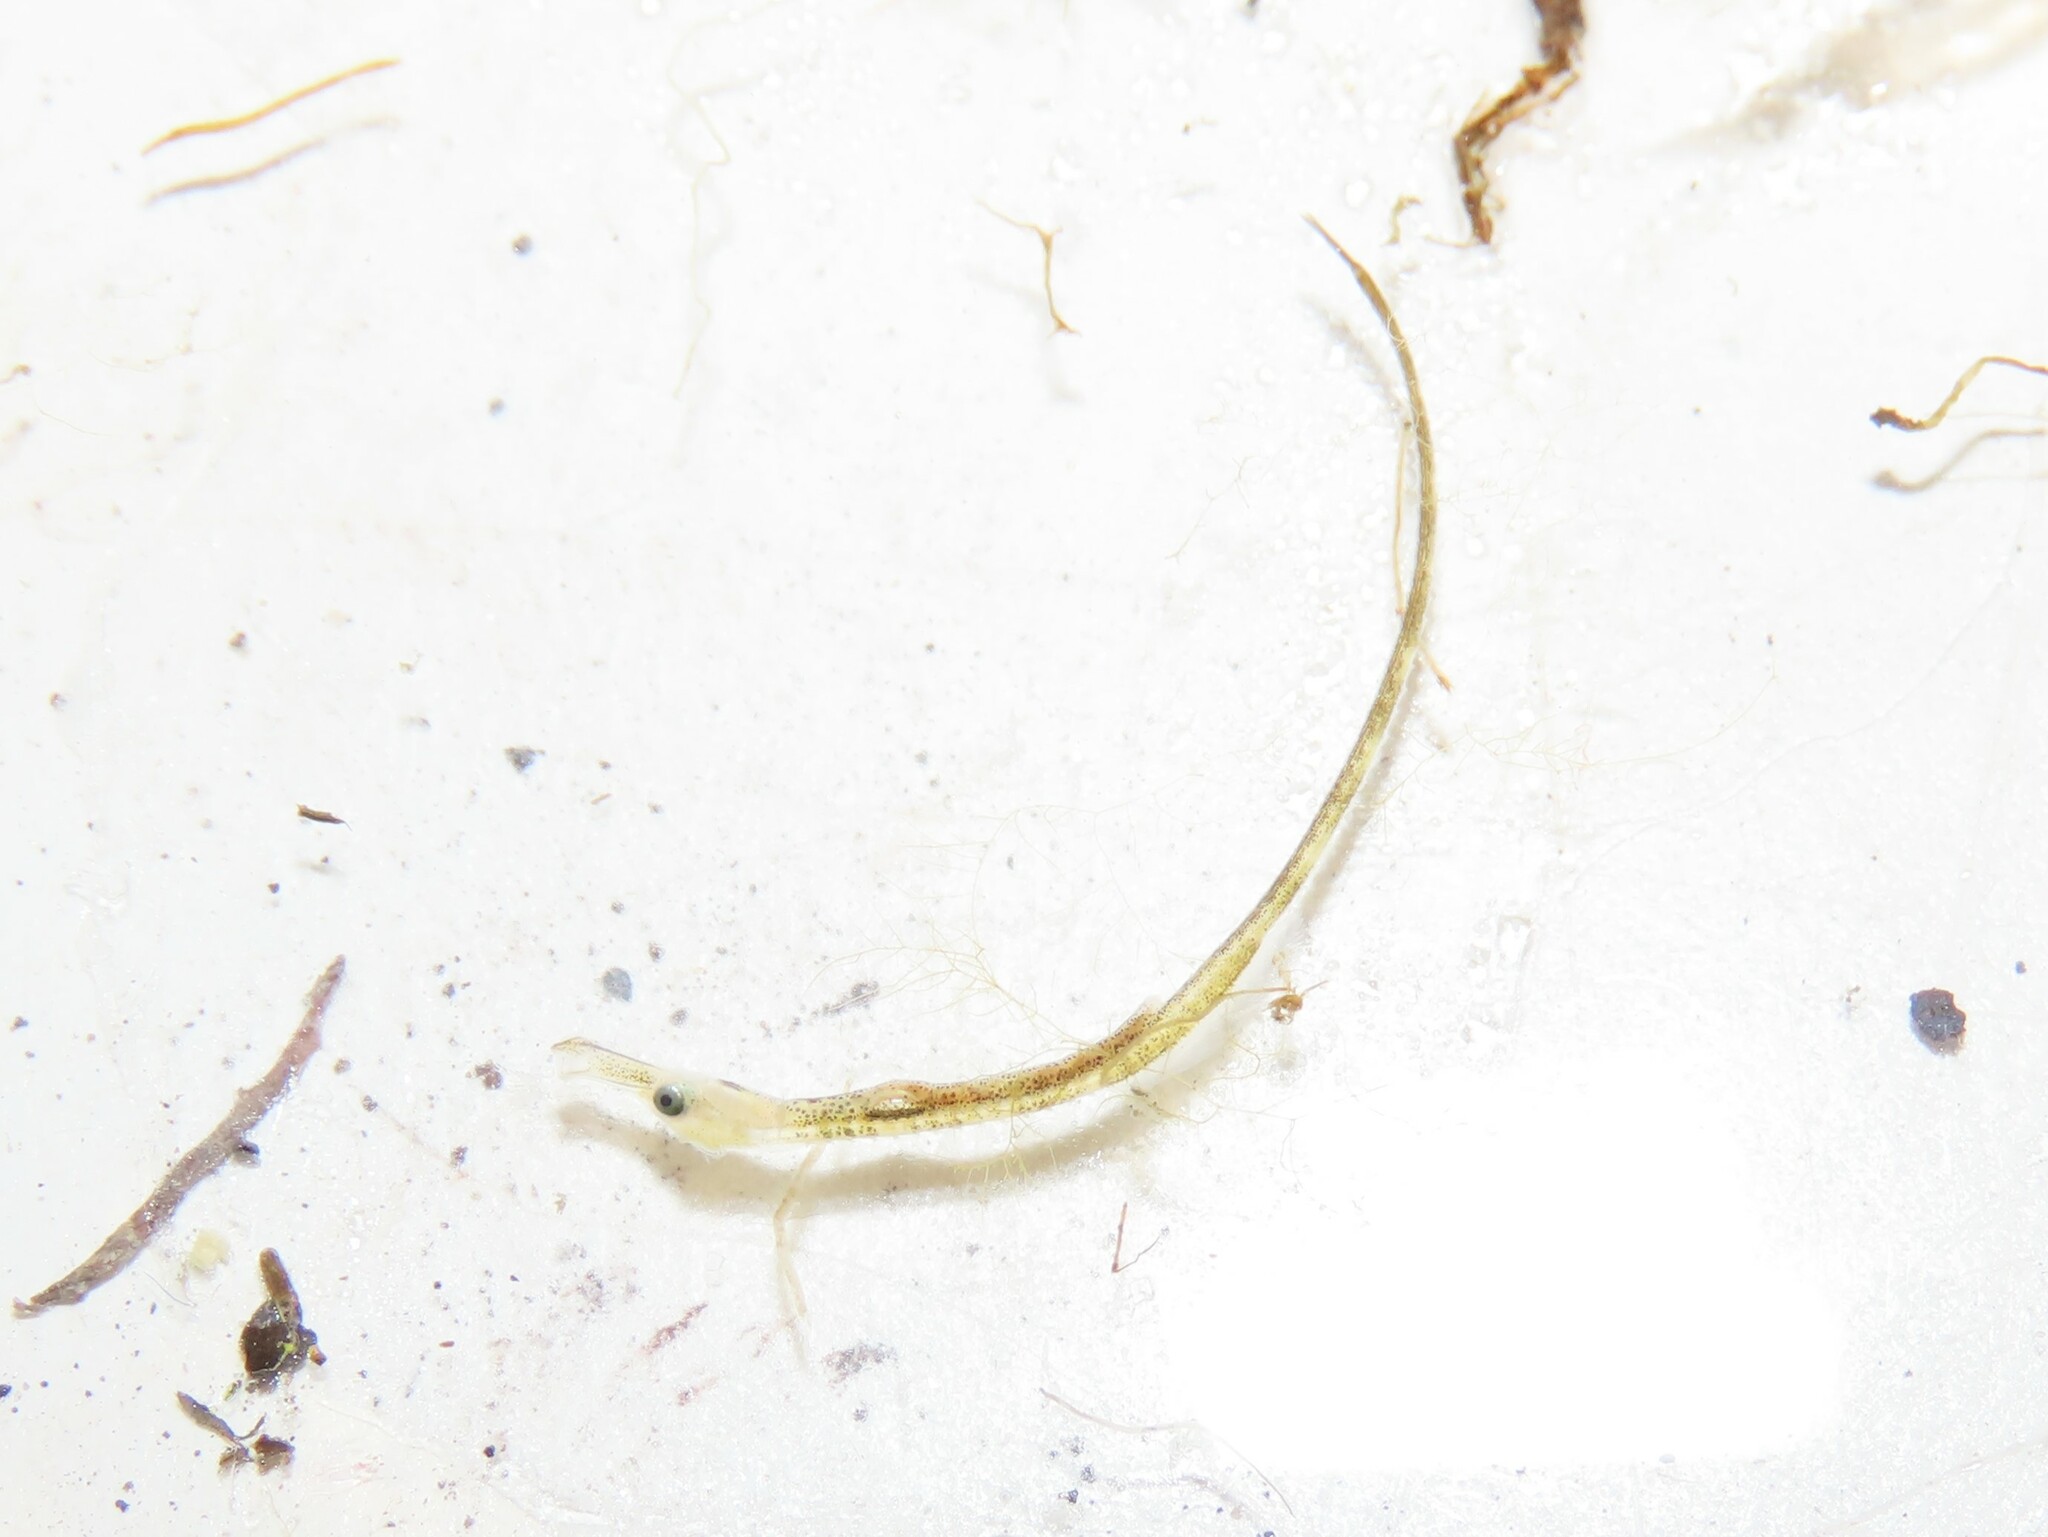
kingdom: Animalia
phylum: Chordata
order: Syngnathiformes
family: Syngnathidae
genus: Syngnathus
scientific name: Syngnathus fuscus
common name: Northern pipefish
